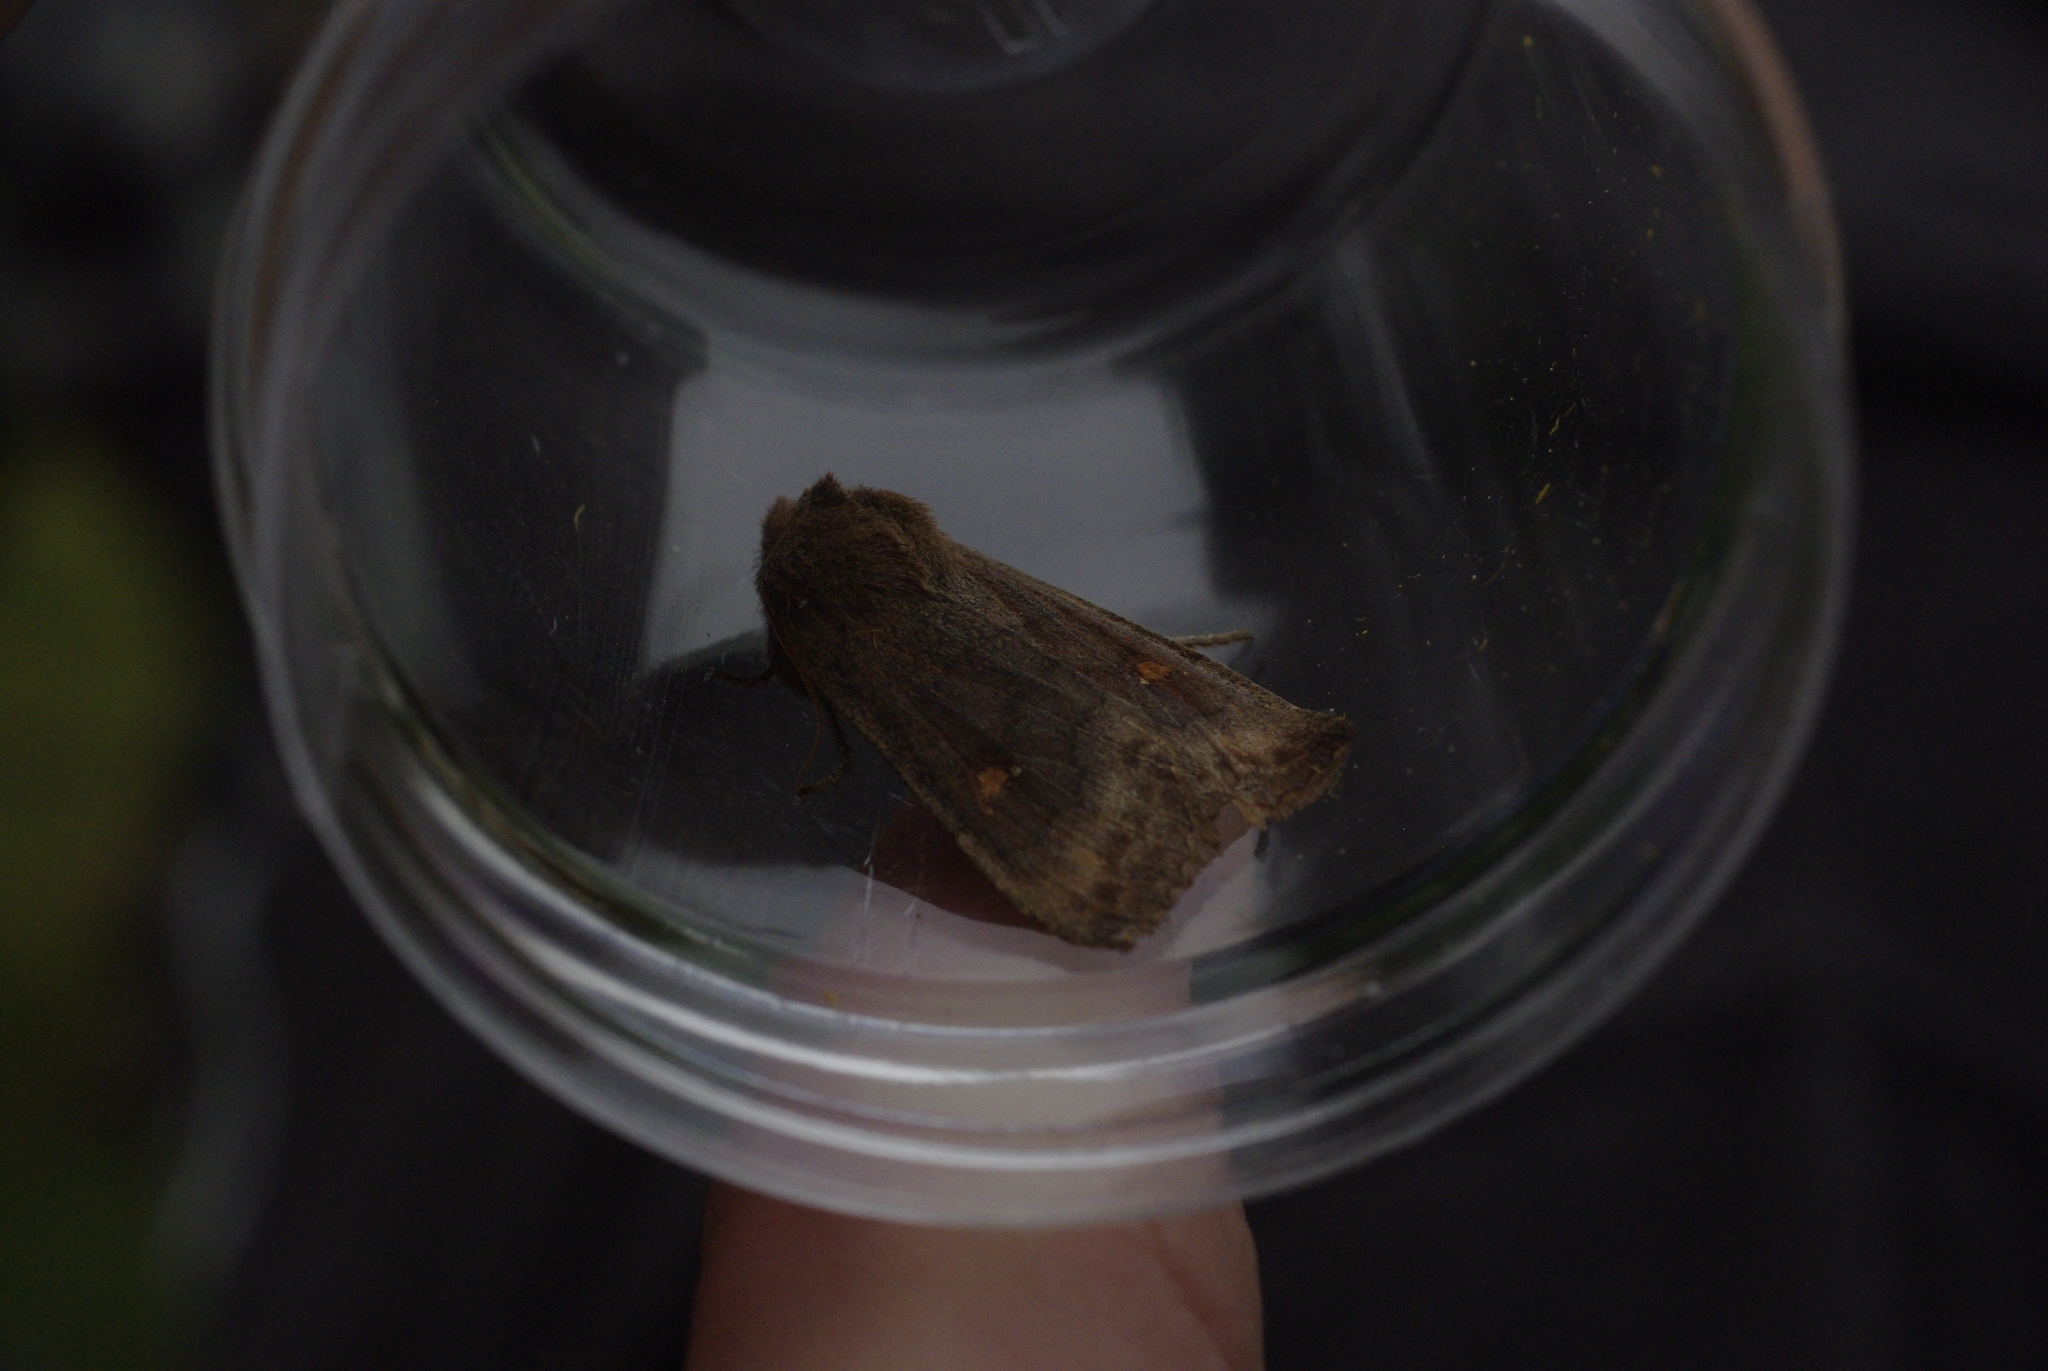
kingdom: Animalia
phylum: Arthropoda
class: Insecta
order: Lepidoptera
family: Noctuidae
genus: Eupsilia
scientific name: Eupsilia transversa
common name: Satellite
